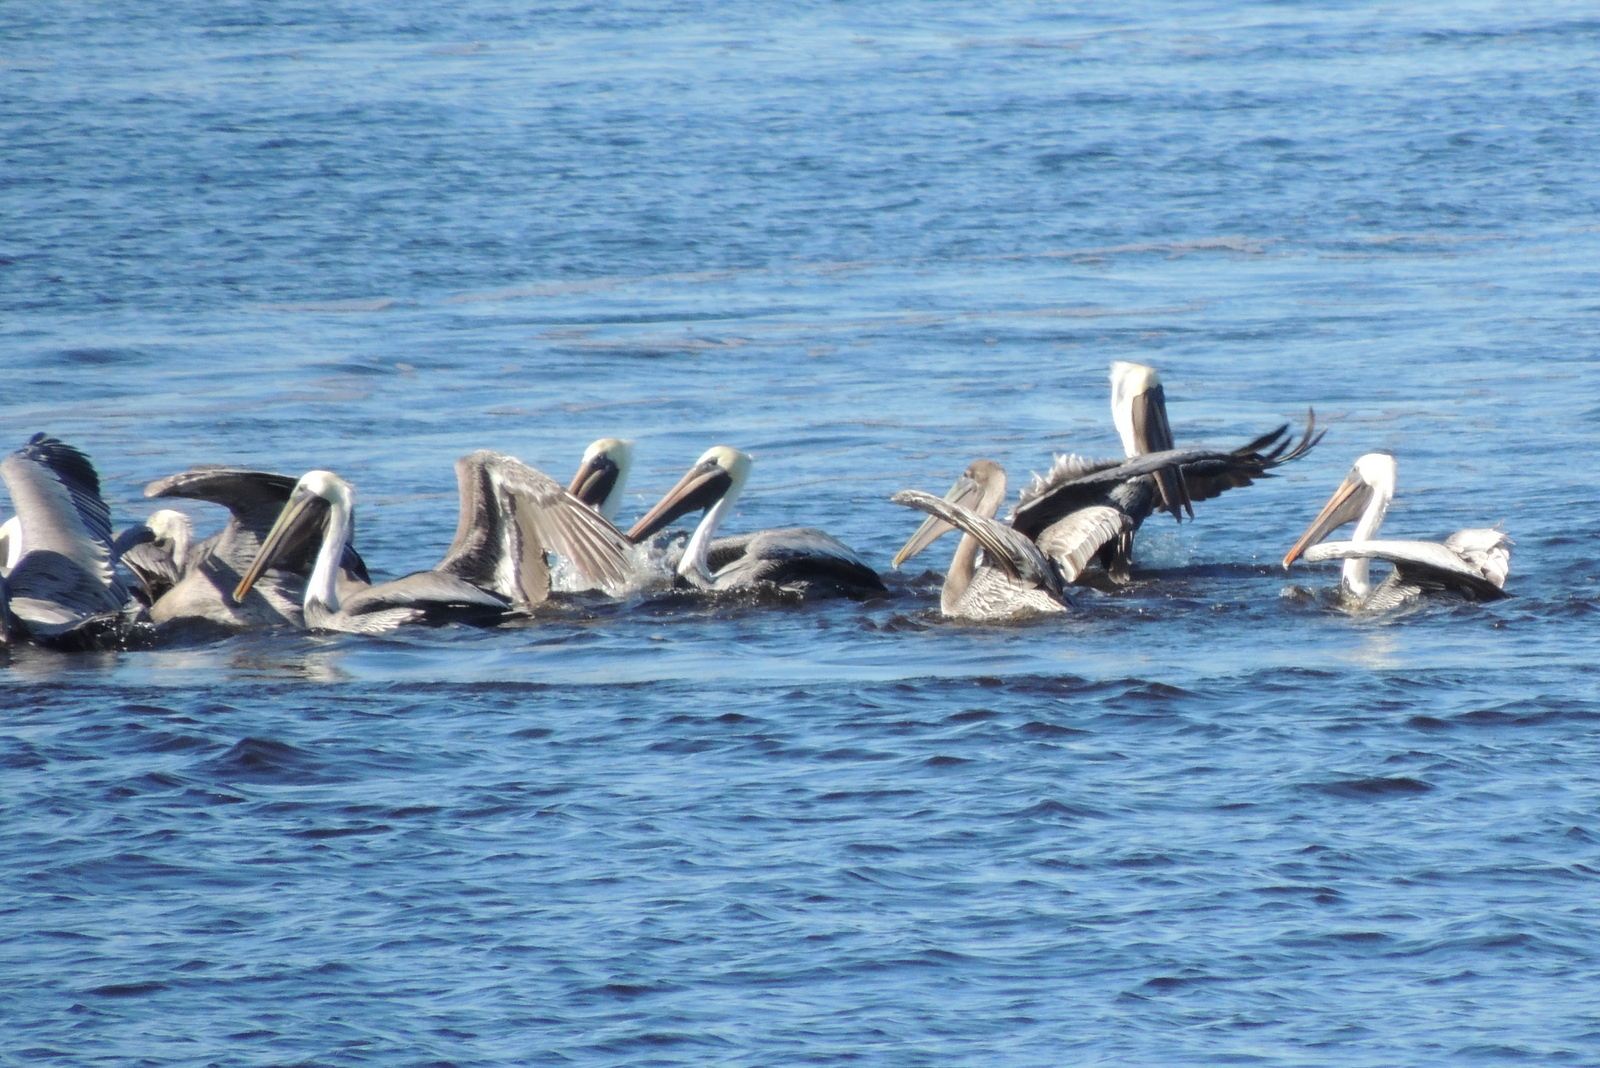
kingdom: Animalia
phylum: Chordata
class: Aves
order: Pelecaniformes
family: Pelecanidae
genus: Pelecanus
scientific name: Pelecanus occidentalis
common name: Brown pelican
